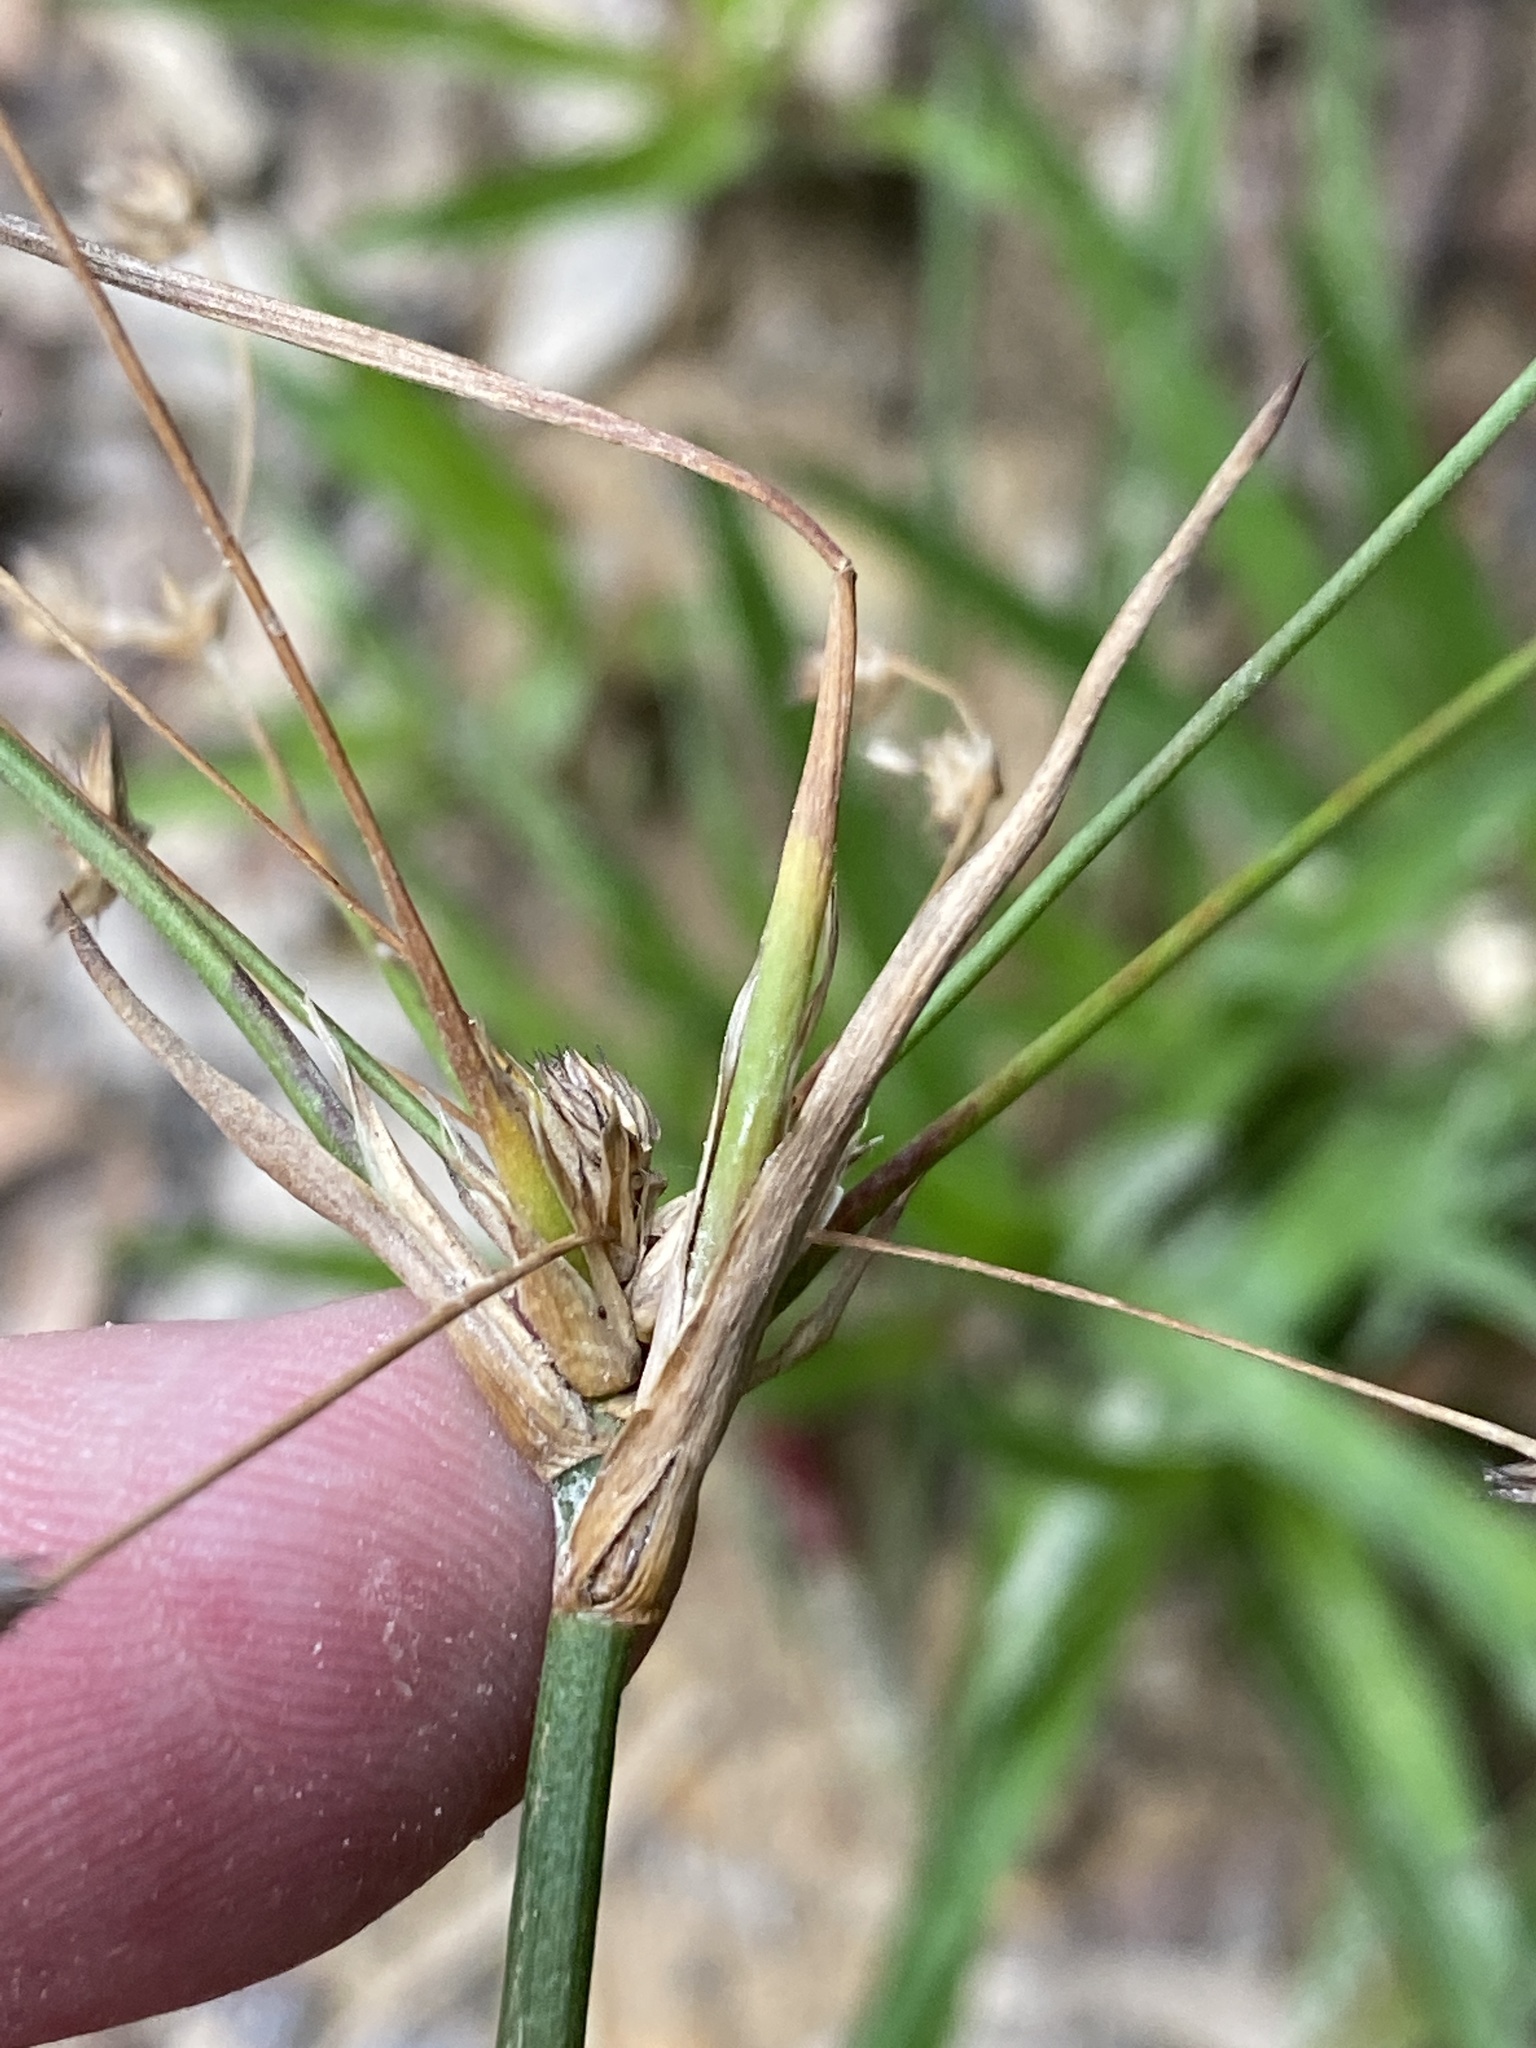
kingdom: Plantae
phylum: Tracheophyta
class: Liliopsida
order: Poales
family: Juncaceae
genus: Juncus
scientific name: Juncus lomatophyllus
